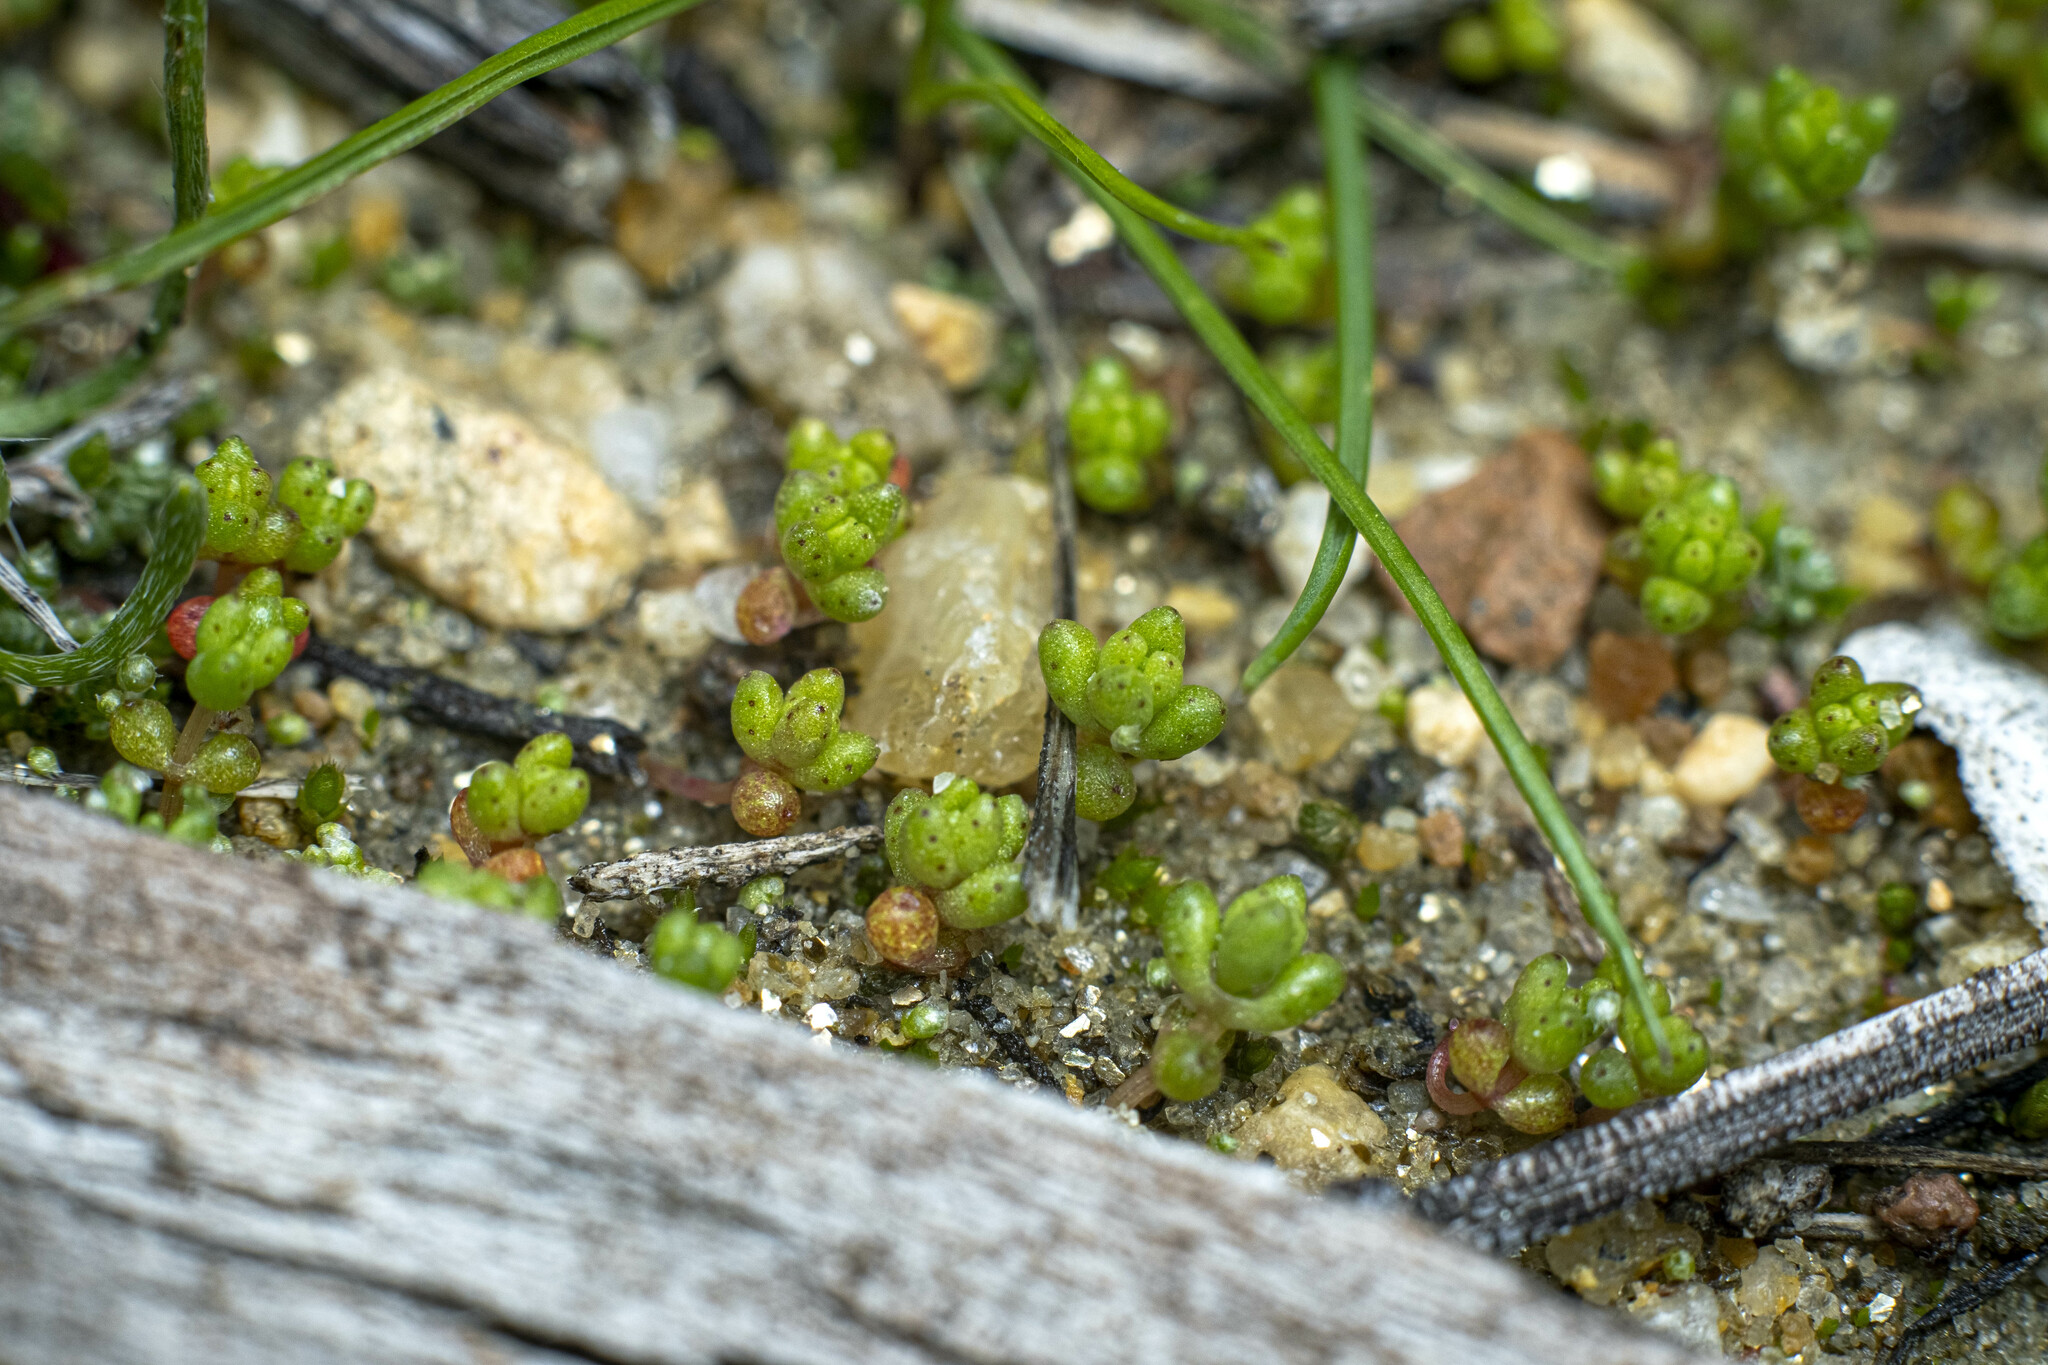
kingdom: Plantae
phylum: Tracheophyta
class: Magnoliopsida
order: Saxifragales
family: Crassulaceae
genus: Crassula
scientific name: Crassula connata
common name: Erect pygmyweed
